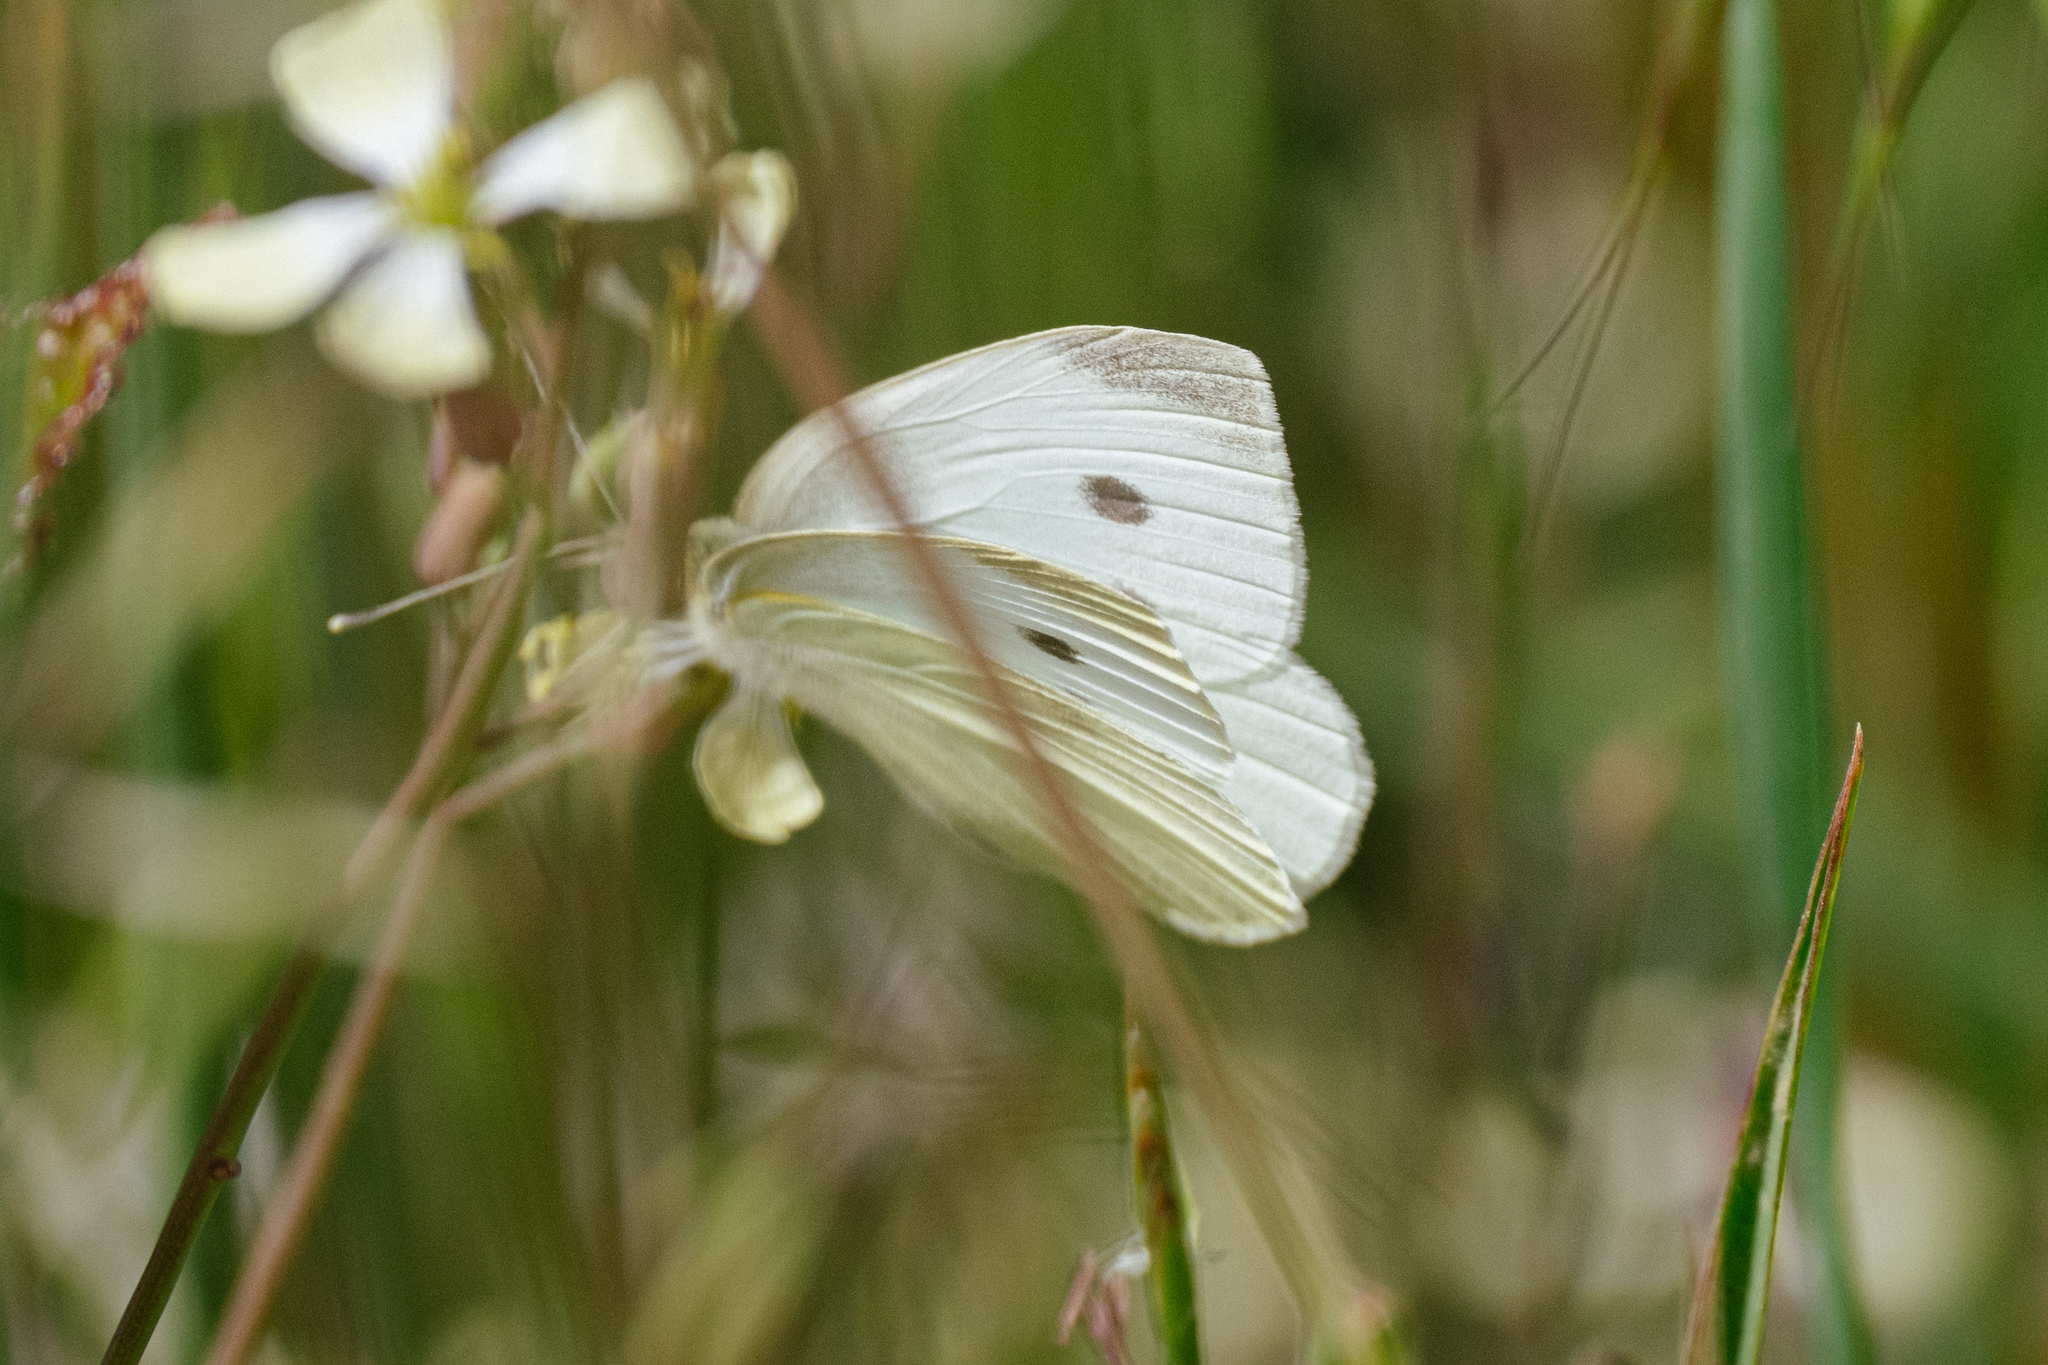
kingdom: Animalia
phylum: Arthropoda
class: Insecta
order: Lepidoptera
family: Pieridae
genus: Pieris
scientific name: Pieris rapae
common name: Small white
